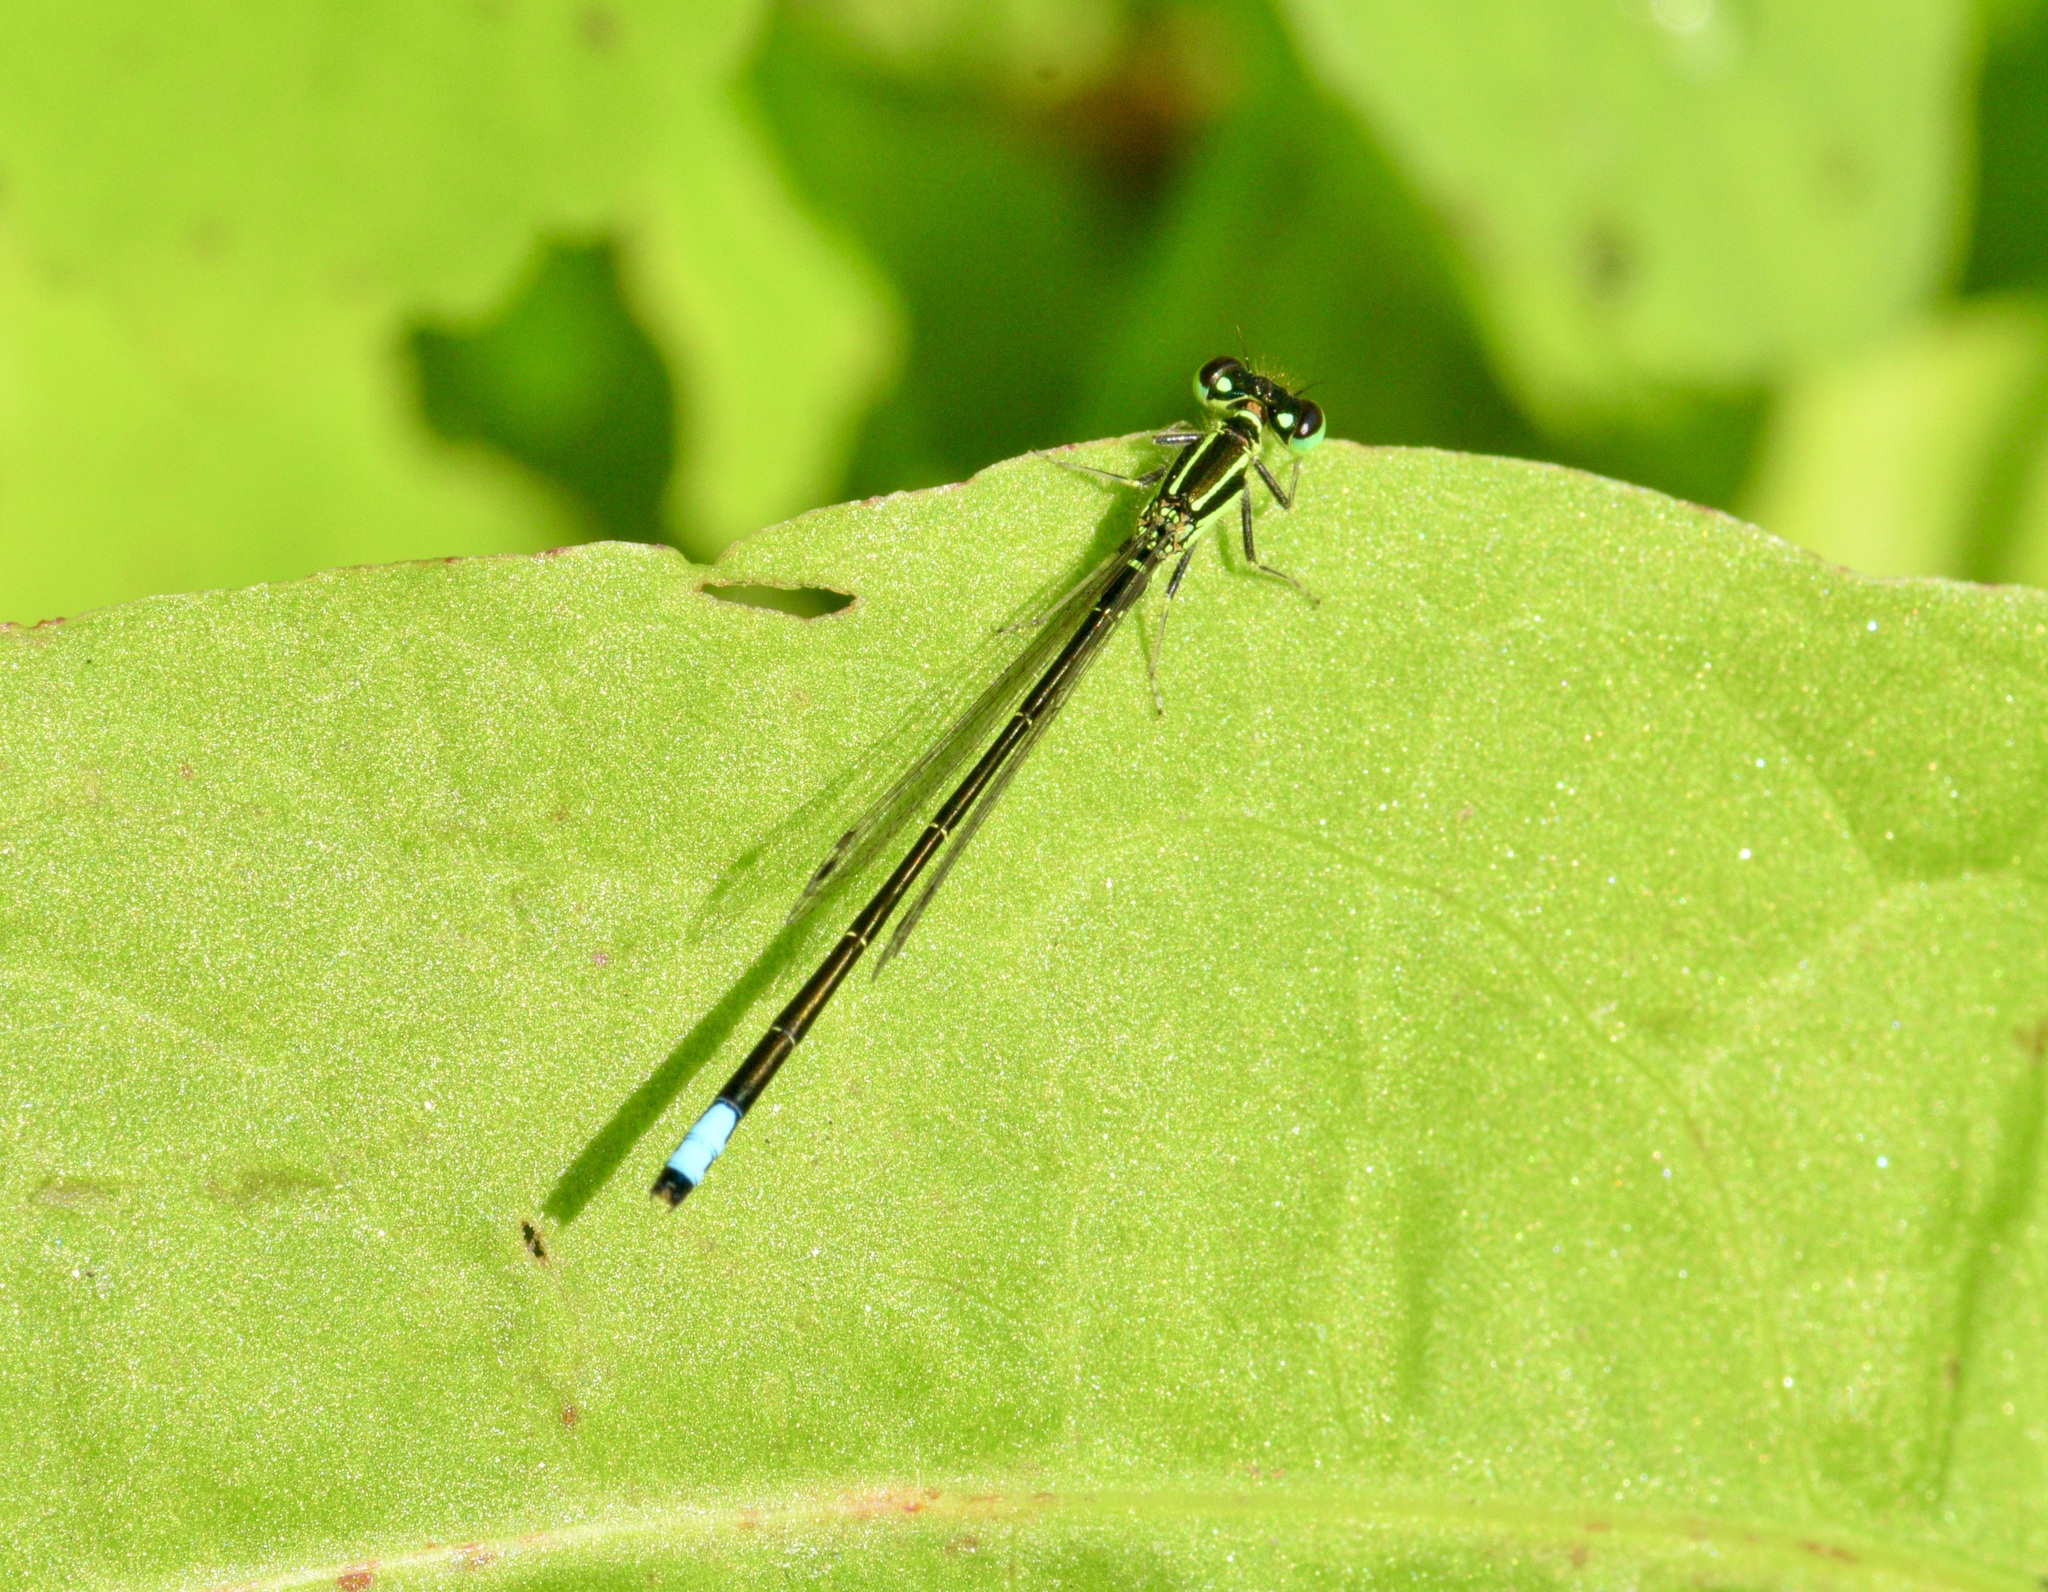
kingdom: Animalia
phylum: Arthropoda
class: Insecta
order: Odonata
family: Coenagrionidae
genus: Ischnura
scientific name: Ischnura verticalis
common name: Eastern forktail
